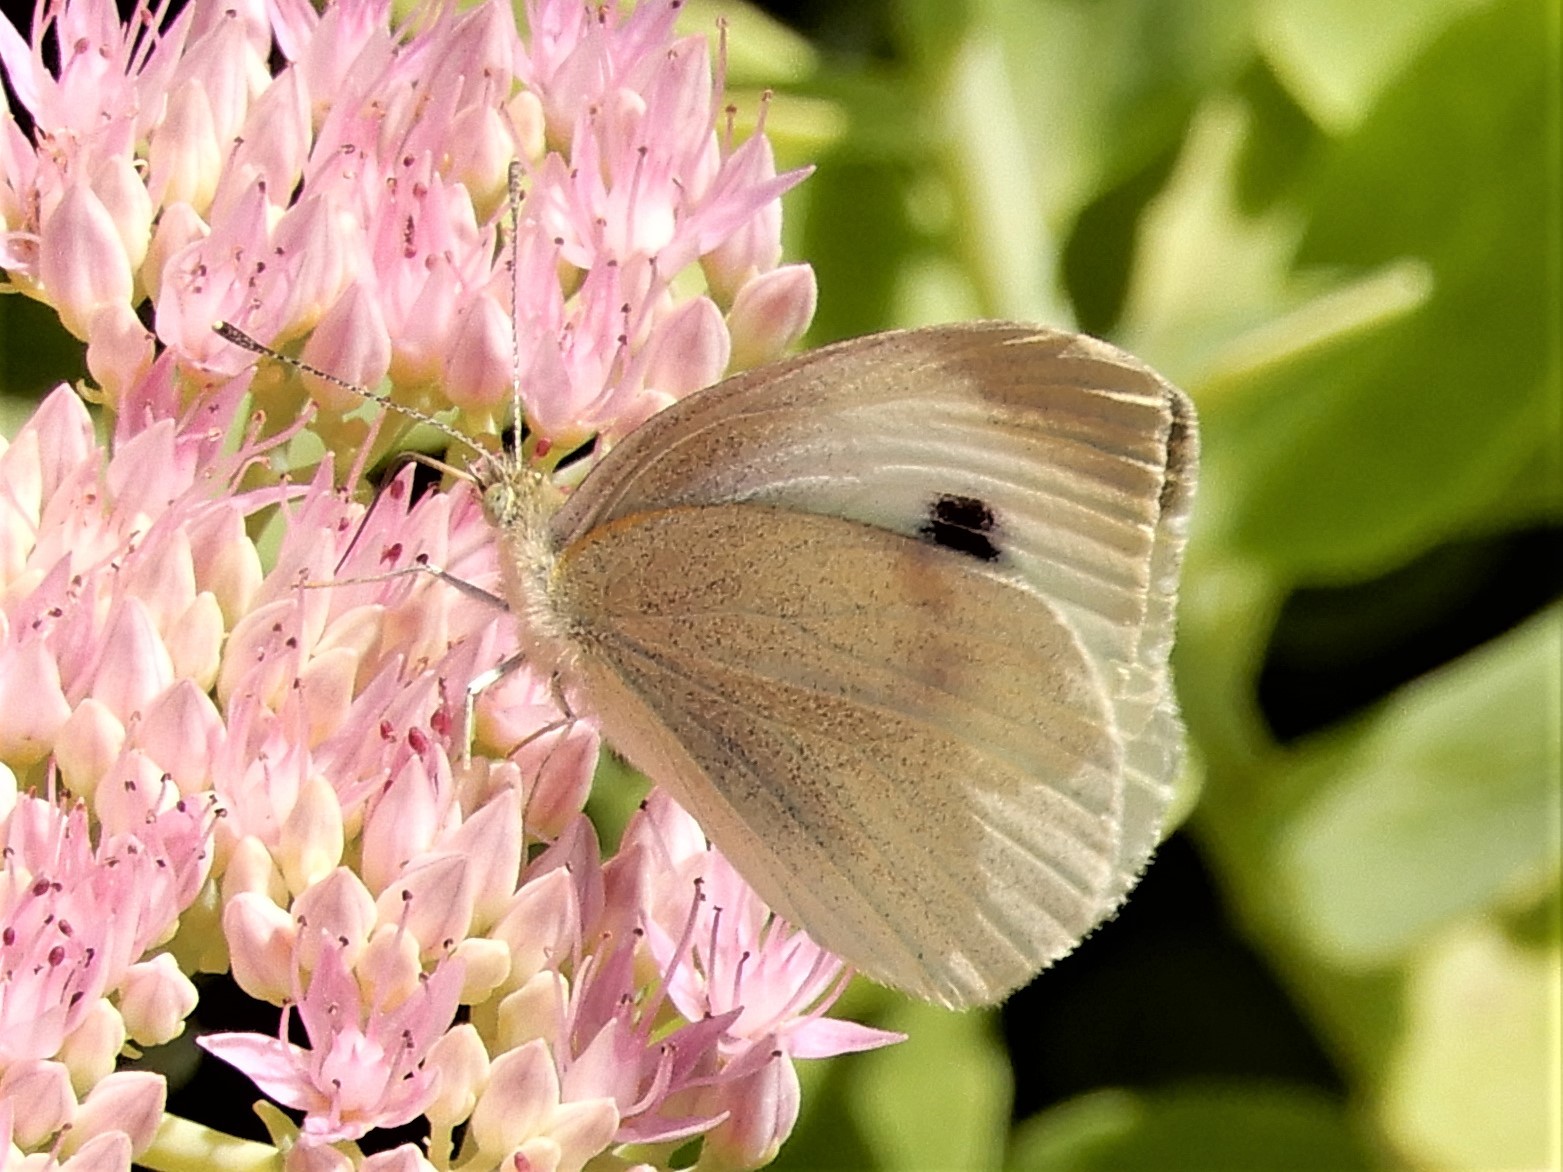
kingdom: Animalia
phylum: Arthropoda
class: Insecta
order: Lepidoptera
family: Pieridae
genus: Pieris
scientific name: Pieris rapae
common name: Small white
